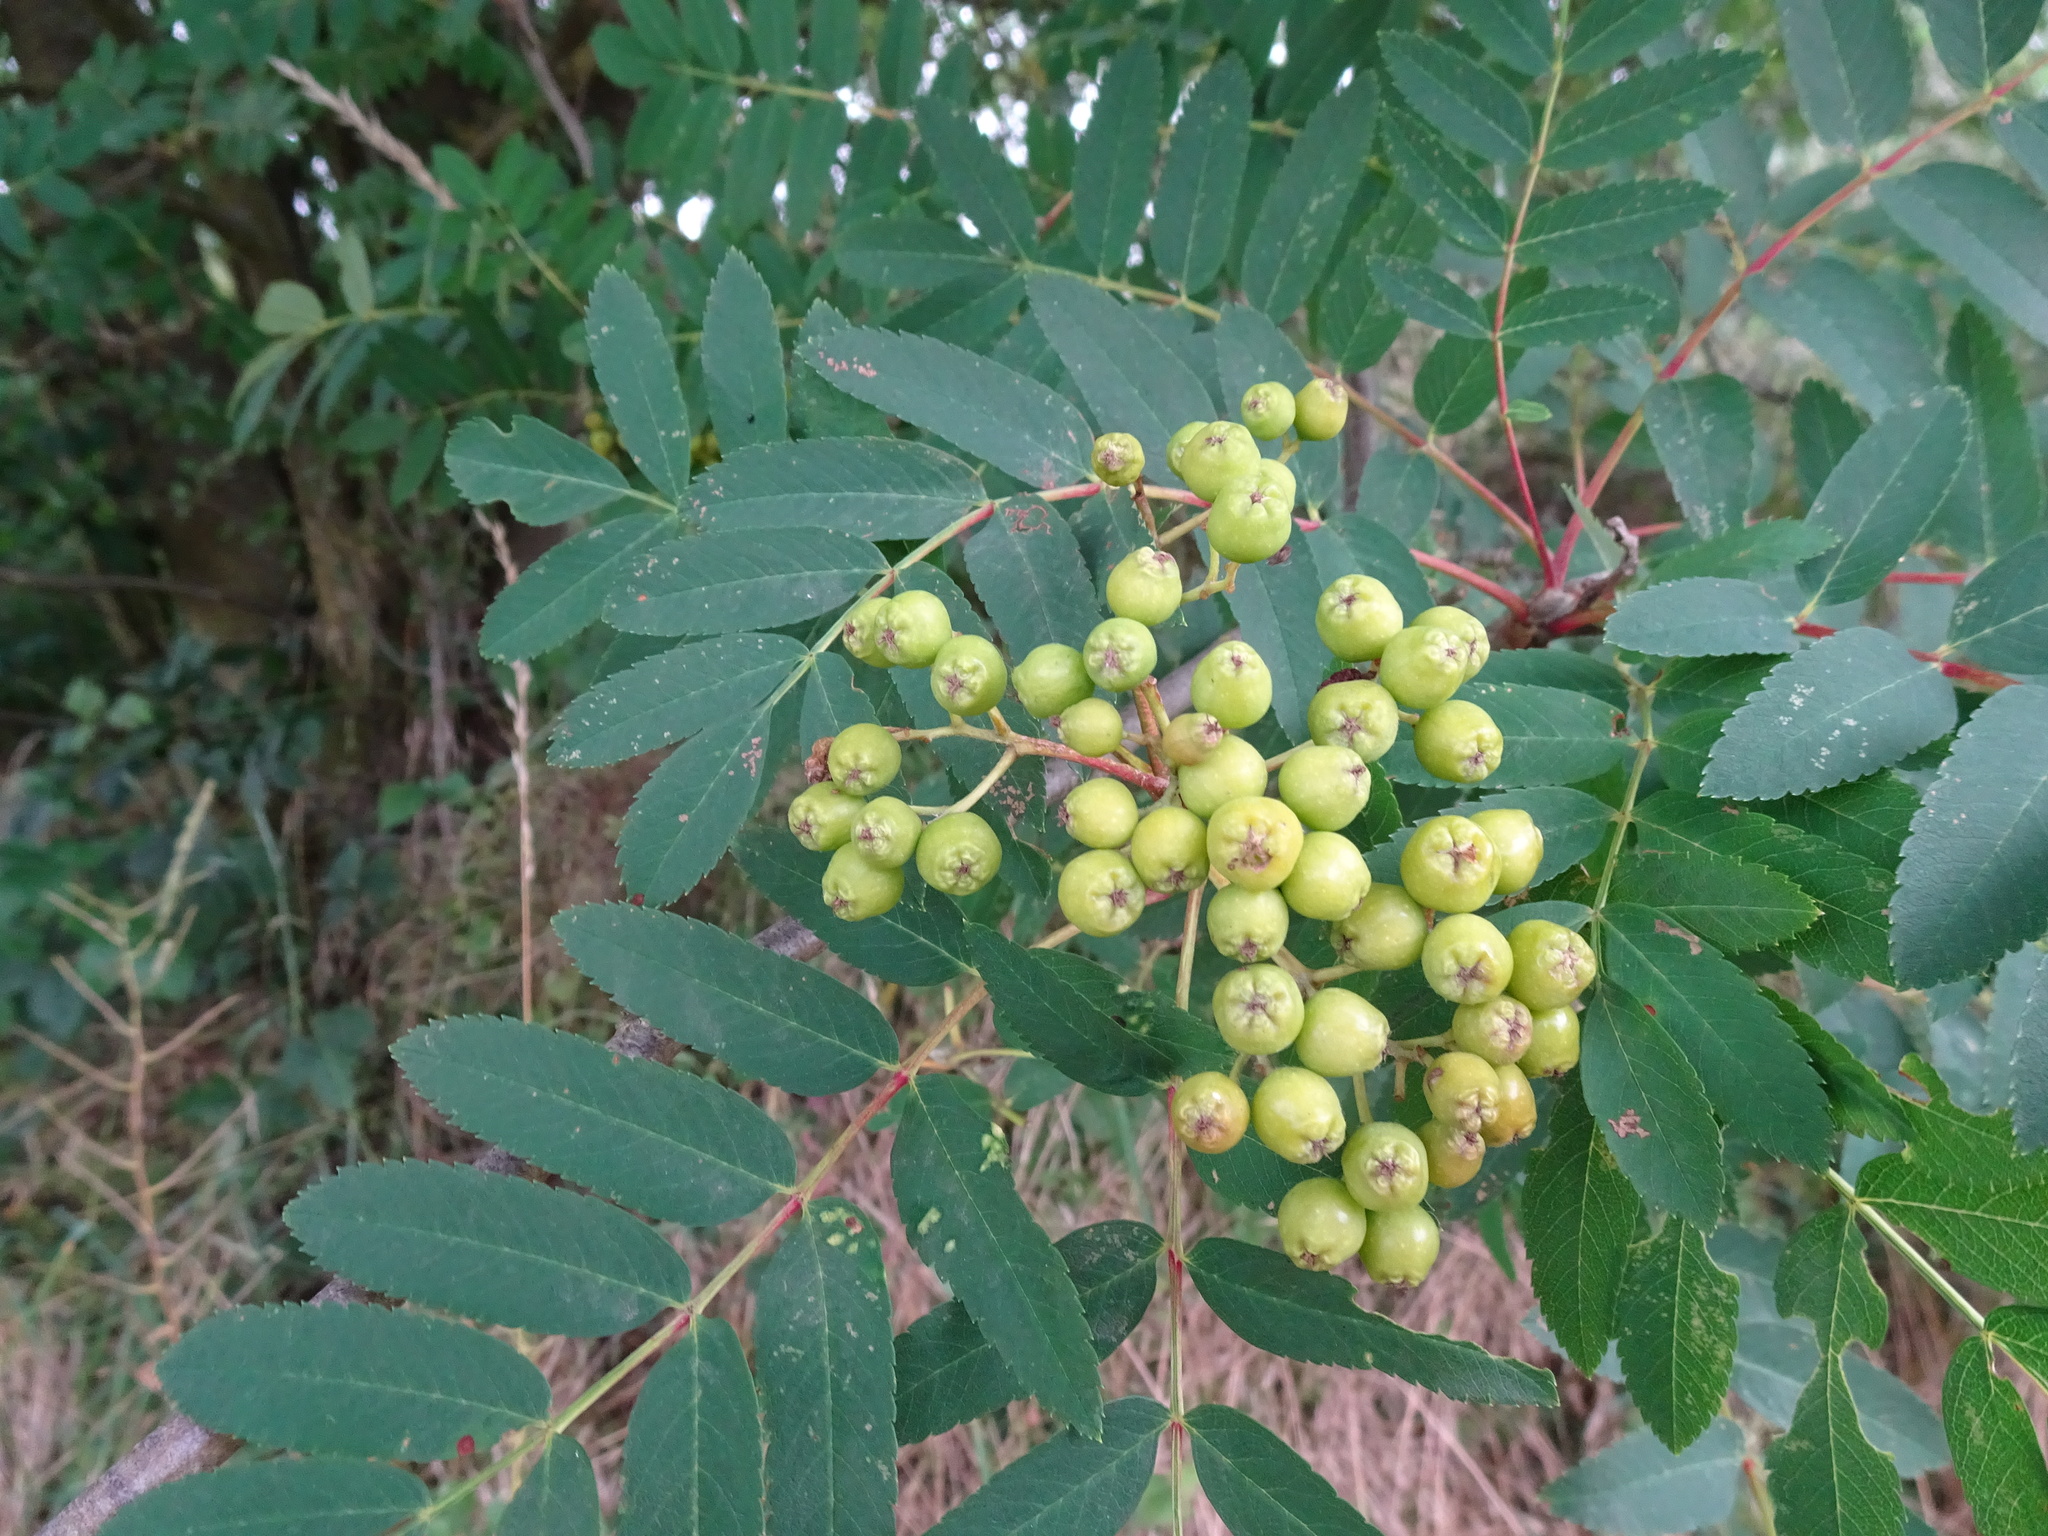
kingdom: Plantae
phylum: Tracheophyta
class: Magnoliopsida
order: Rosales
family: Rosaceae
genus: Sorbus
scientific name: Sorbus aucuparia
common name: Rowan
